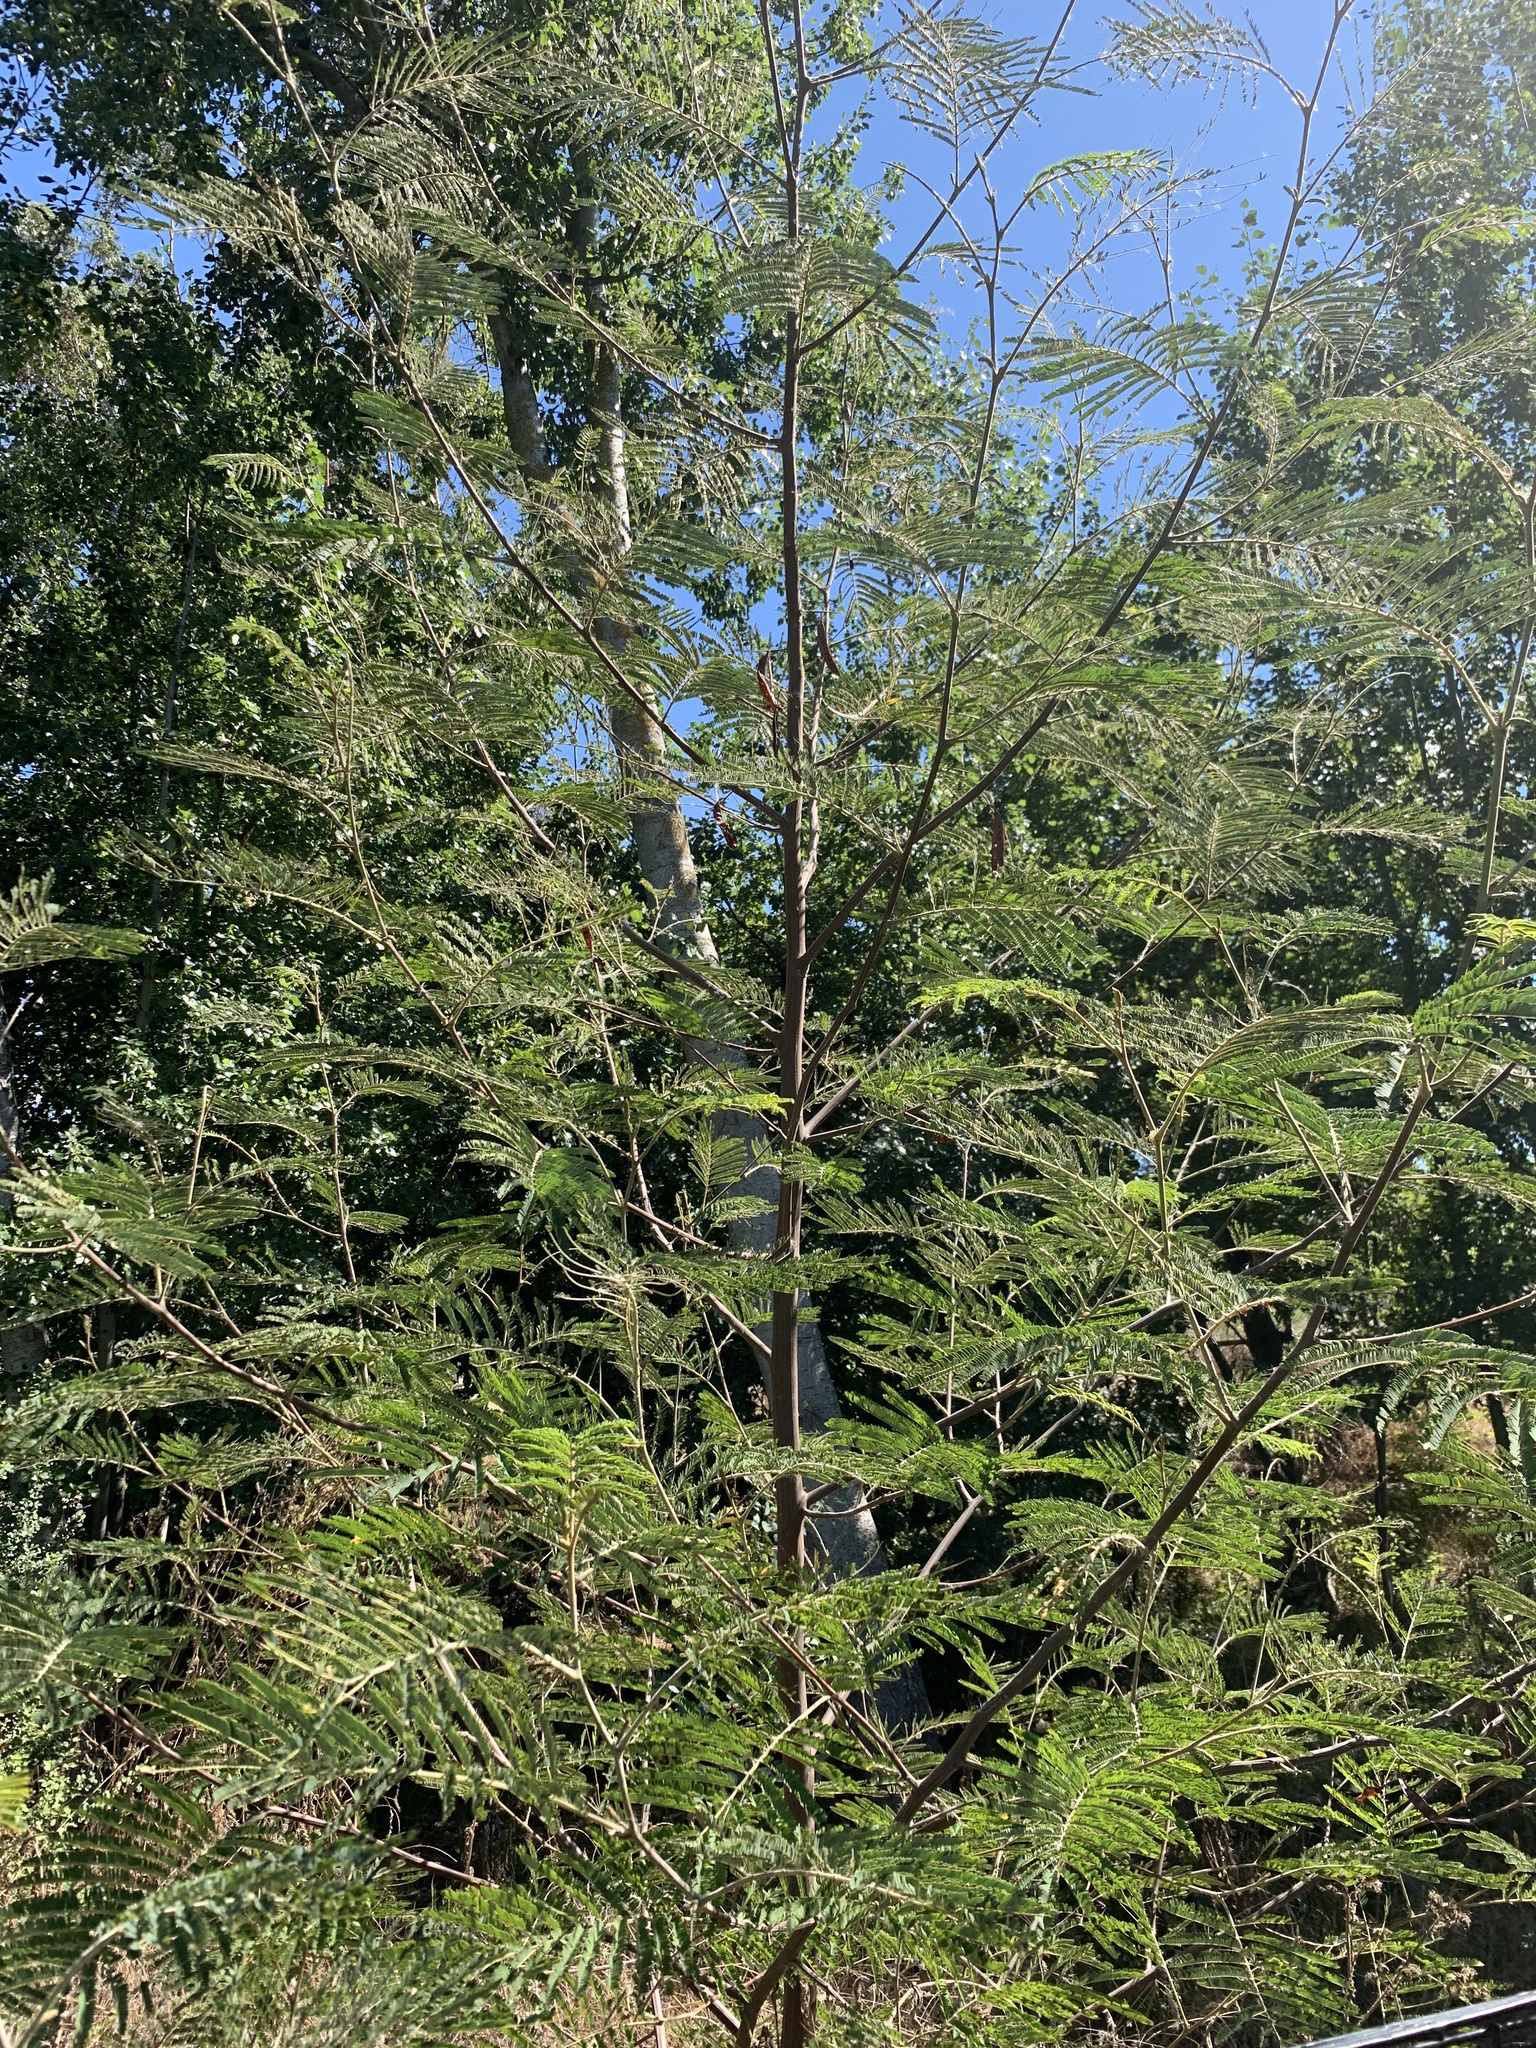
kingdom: Plantae
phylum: Tracheophyta
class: Magnoliopsida
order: Fabales
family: Fabaceae
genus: Acacia
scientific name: Acacia mearnsii
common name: Black wattle
